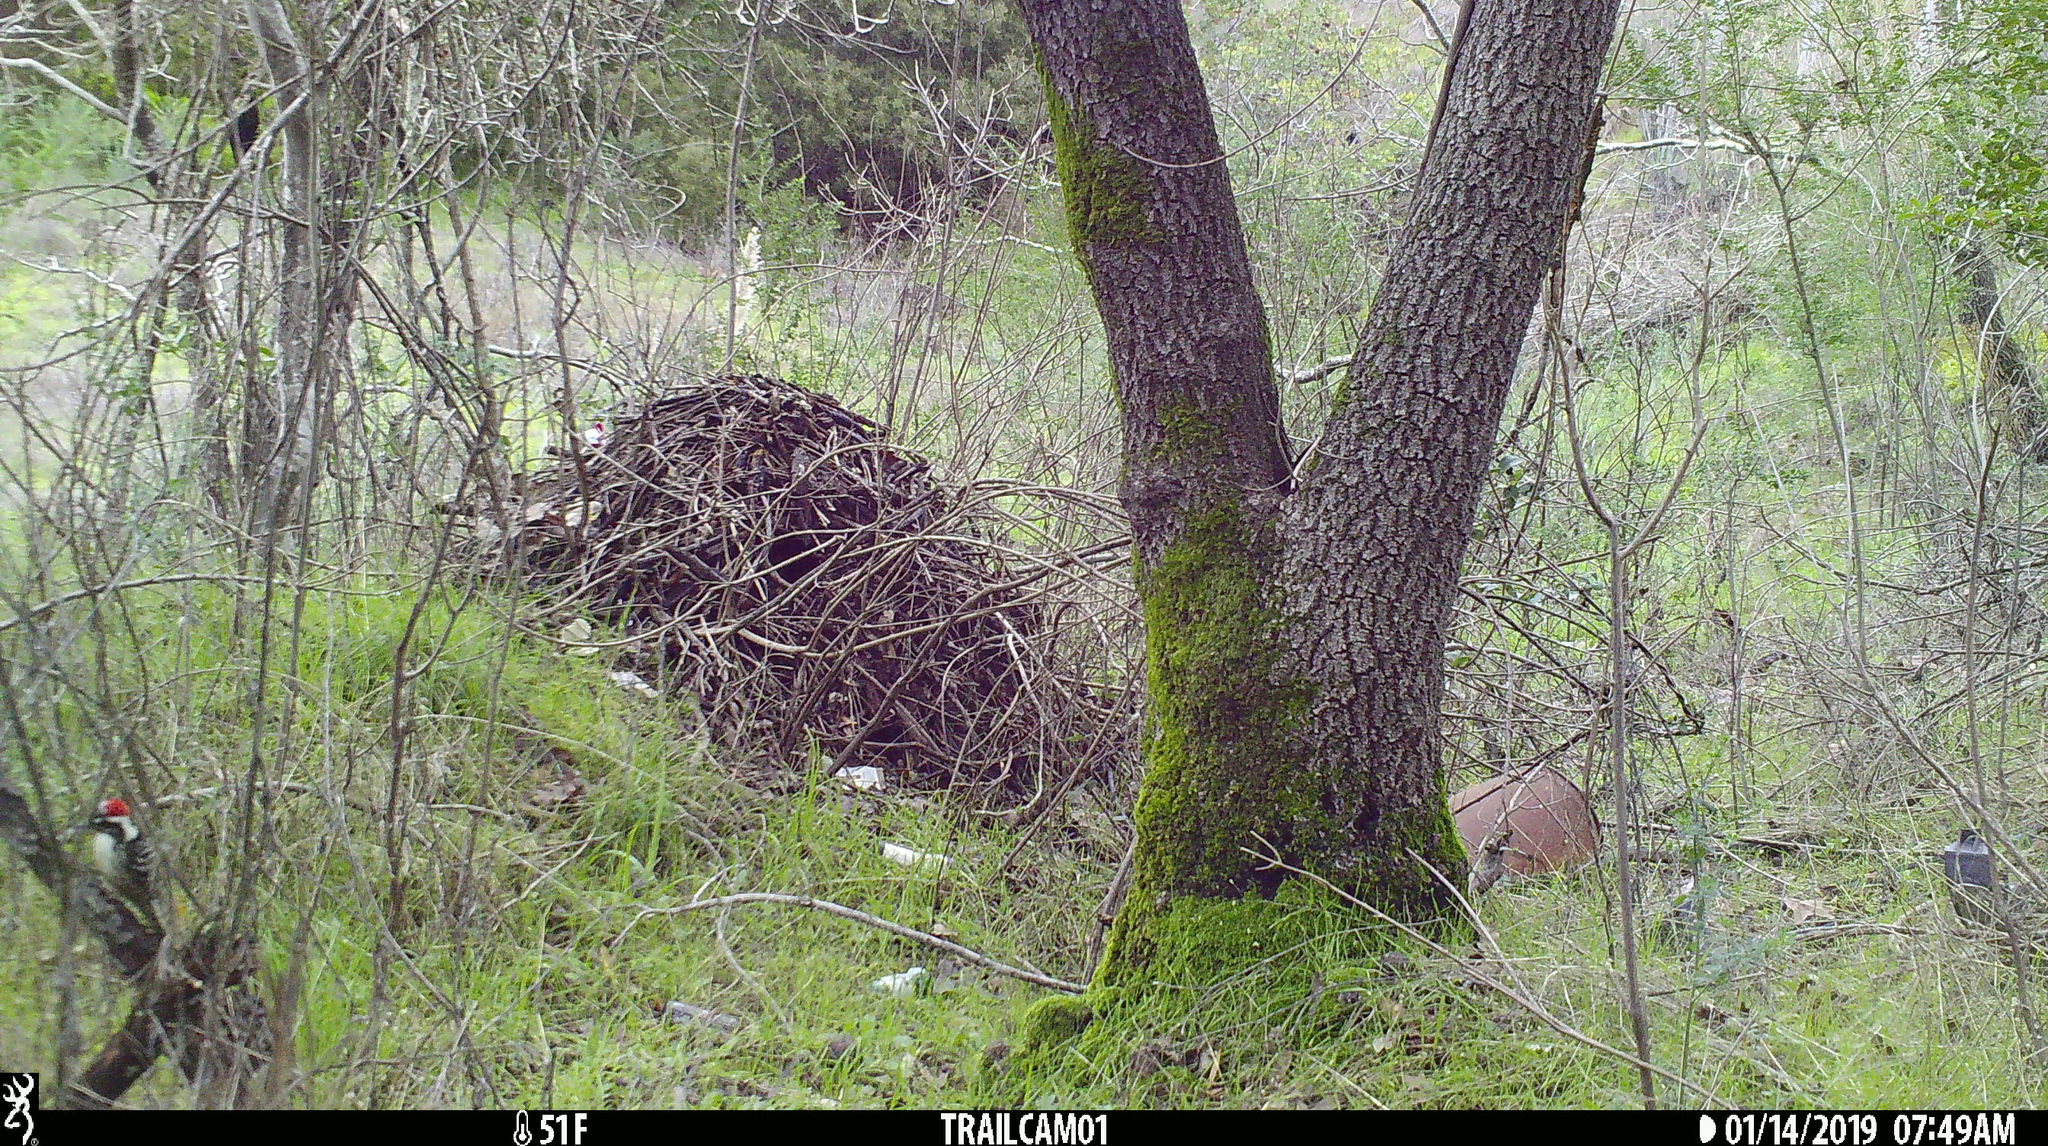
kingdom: Animalia
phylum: Chordata
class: Aves
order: Piciformes
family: Picidae
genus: Dryobates
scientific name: Dryobates nuttallii
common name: Nuttall's woodpecker
